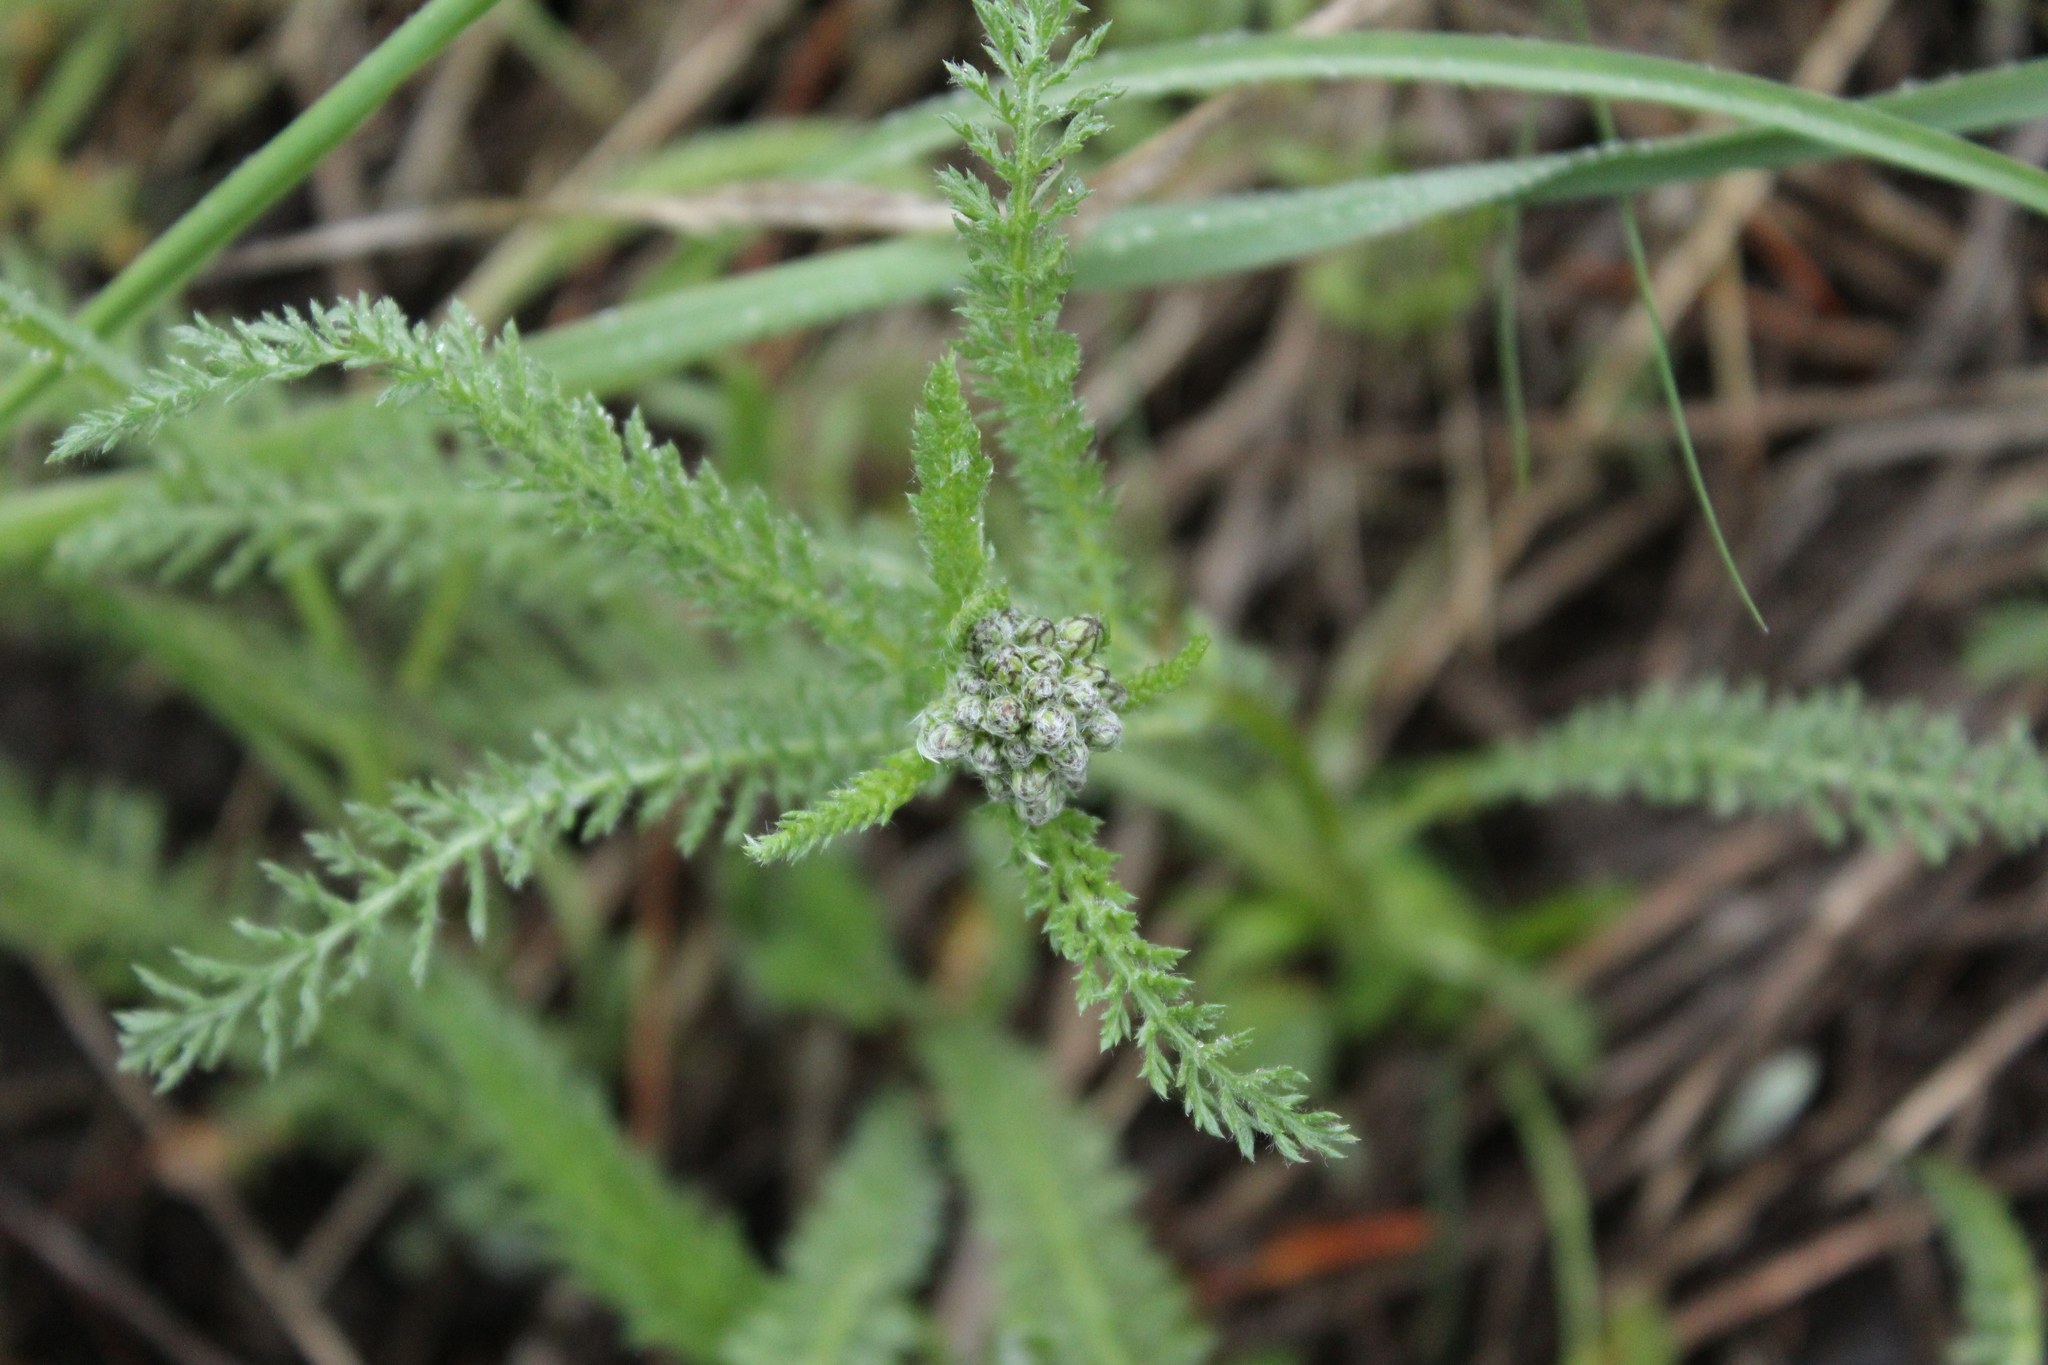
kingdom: Plantae
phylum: Tracheophyta
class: Magnoliopsida
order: Asterales
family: Asteraceae
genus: Achillea
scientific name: Achillea millefolium
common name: Yarrow
